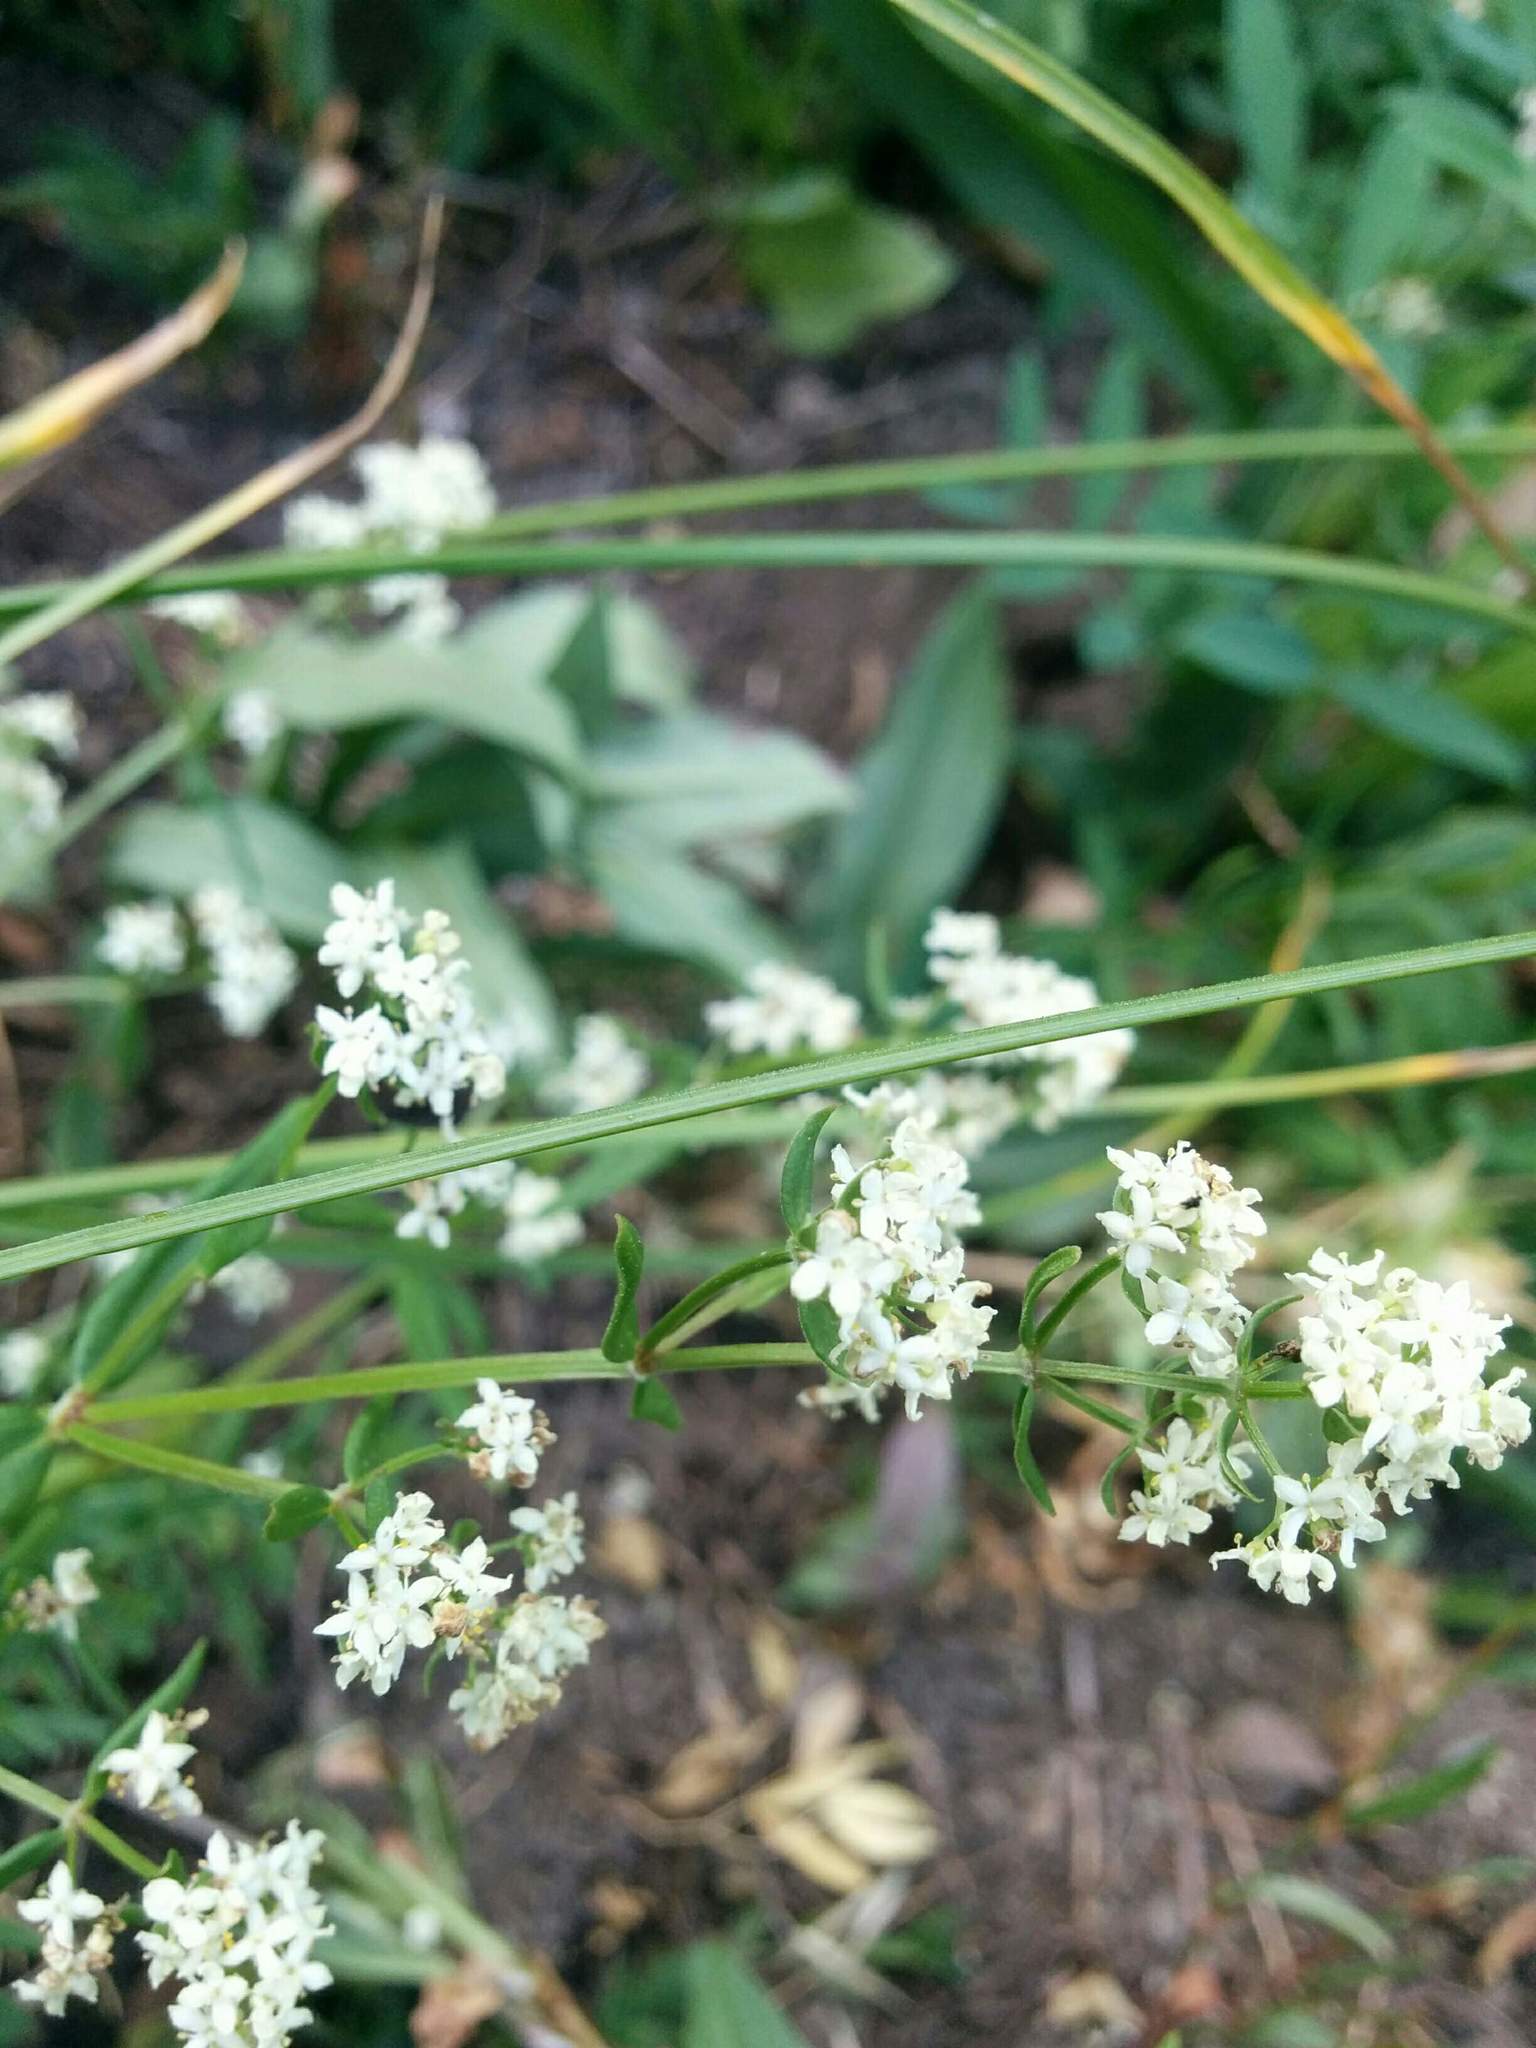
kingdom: Plantae
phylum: Tracheophyta
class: Magnoliopsida
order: Gentianales
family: Rubiaceae
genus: Galium
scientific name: Galium boreale
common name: Northern bedstraw
